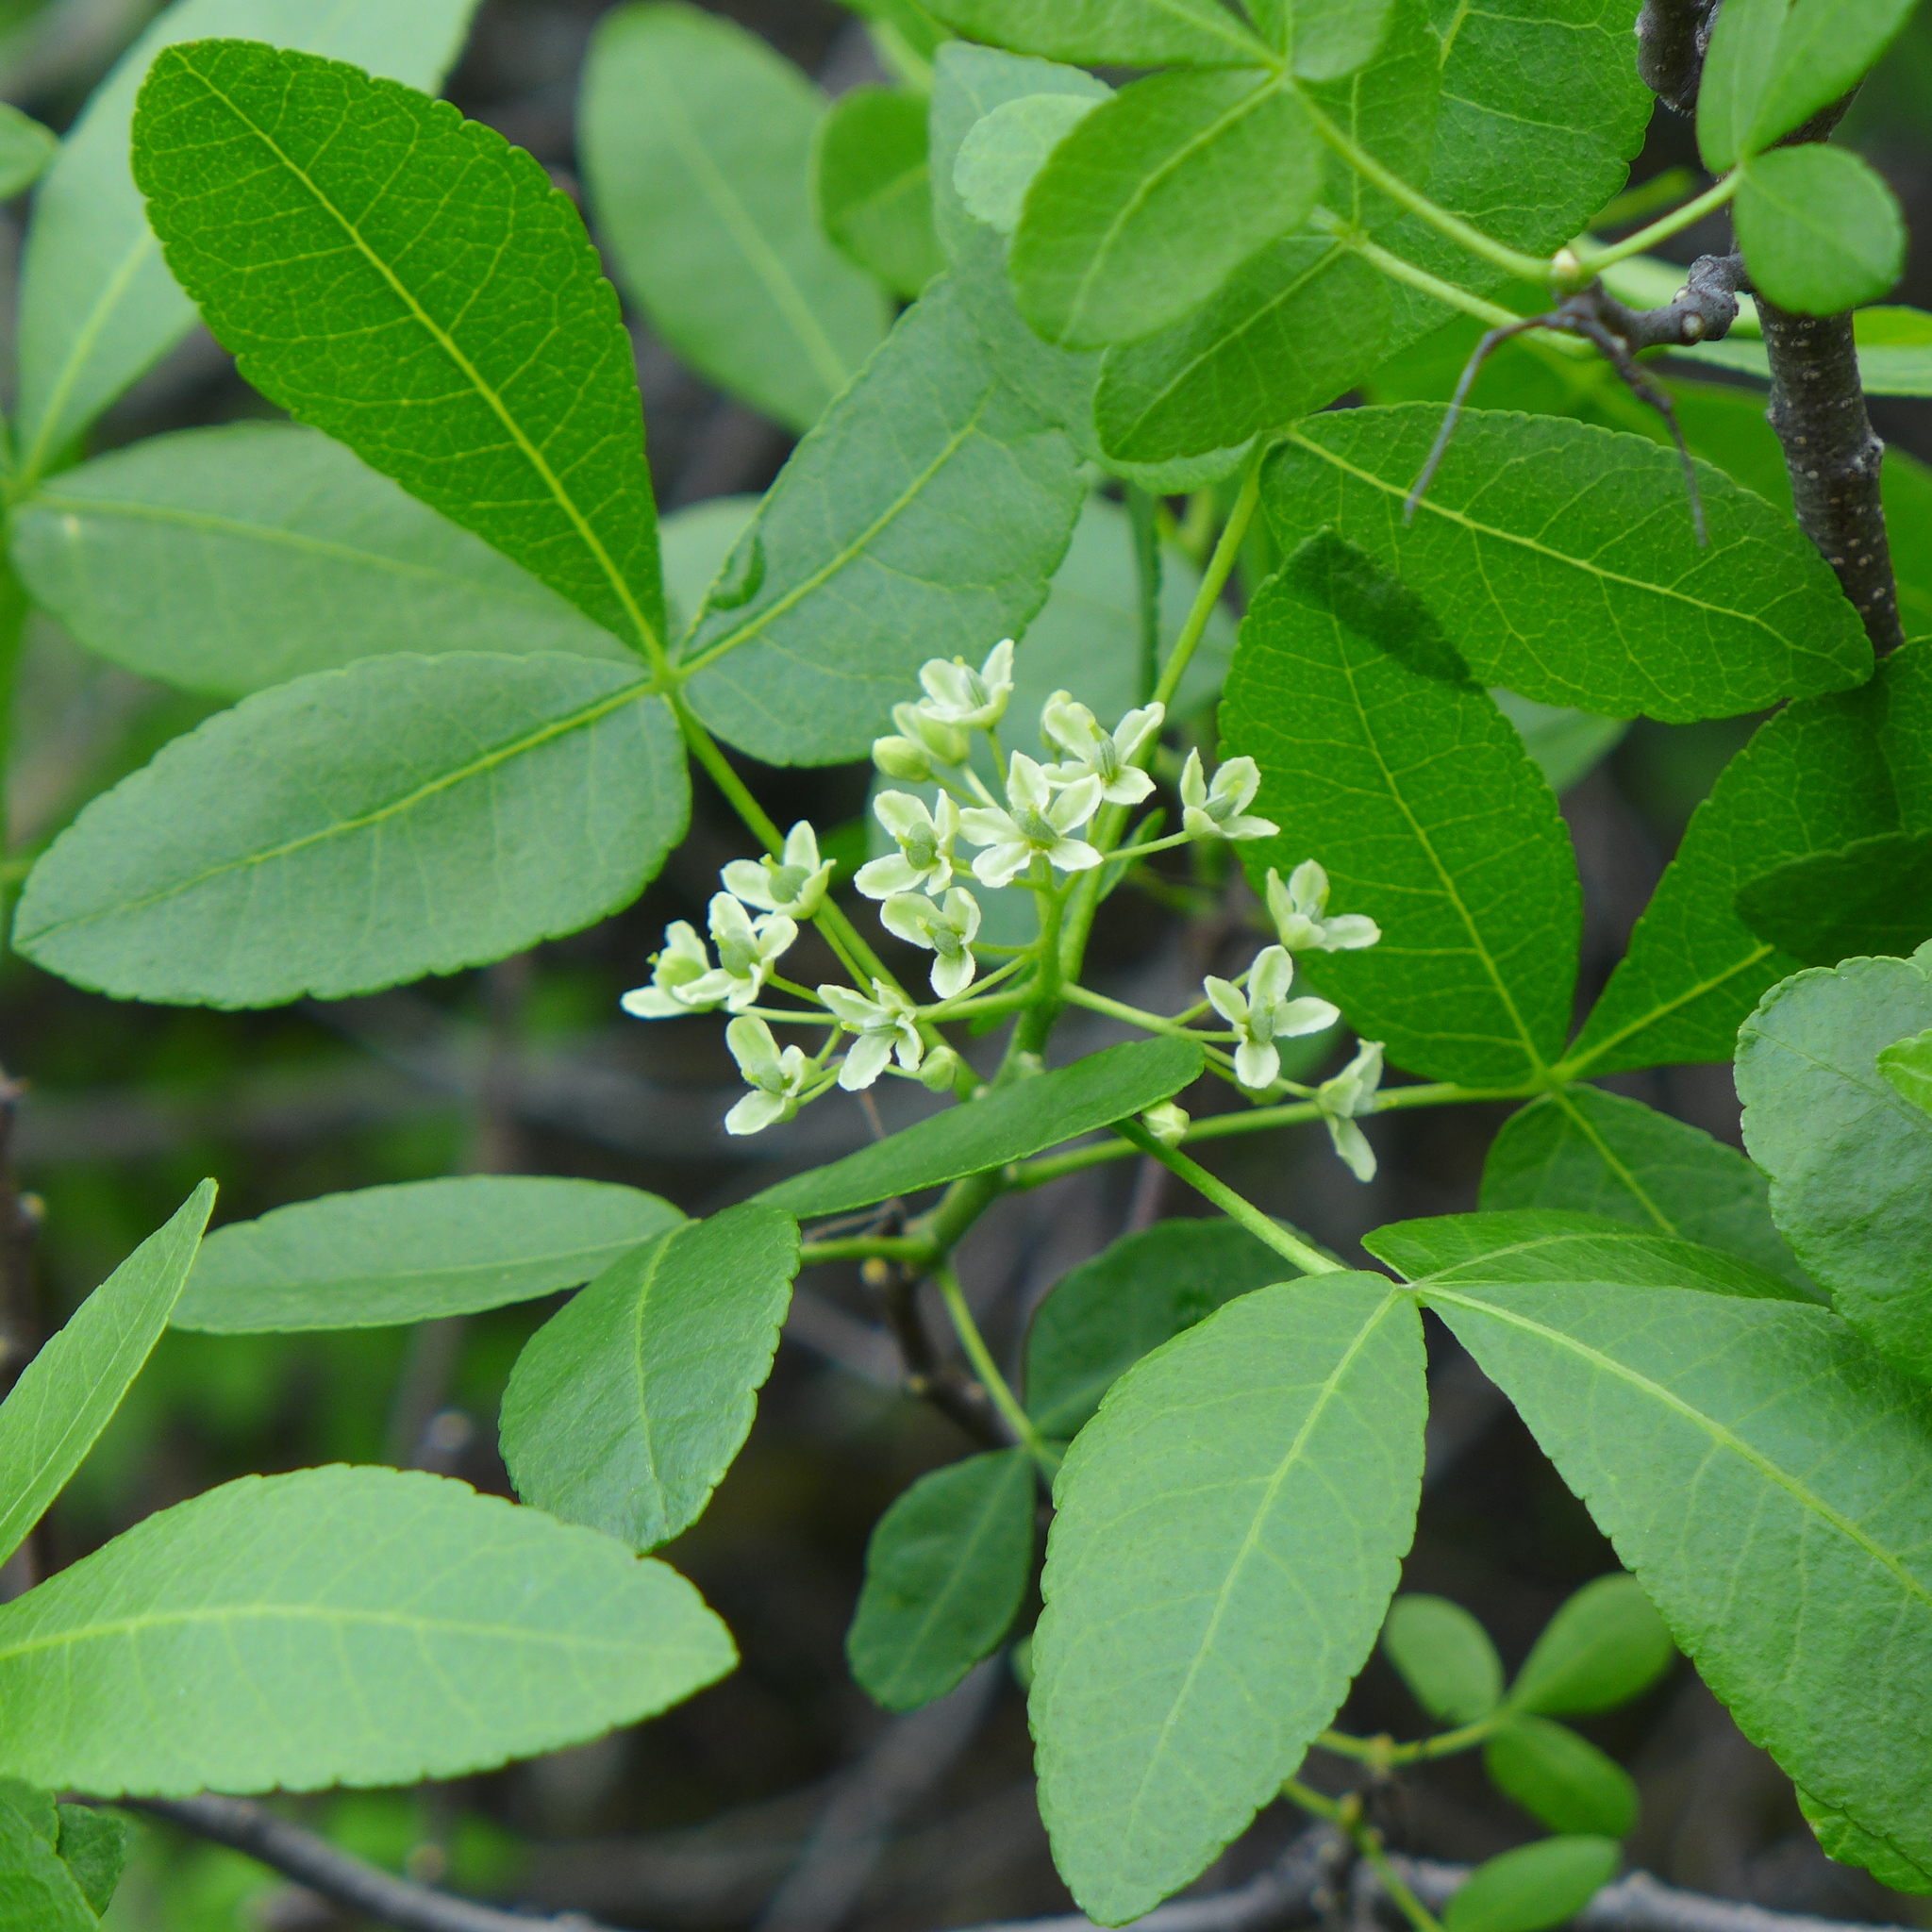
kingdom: Plantae
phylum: Tracheophyta
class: Magnoliopsida
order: Sapindales
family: Rutaceae
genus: Ptelea
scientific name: Ptelea crenulata
